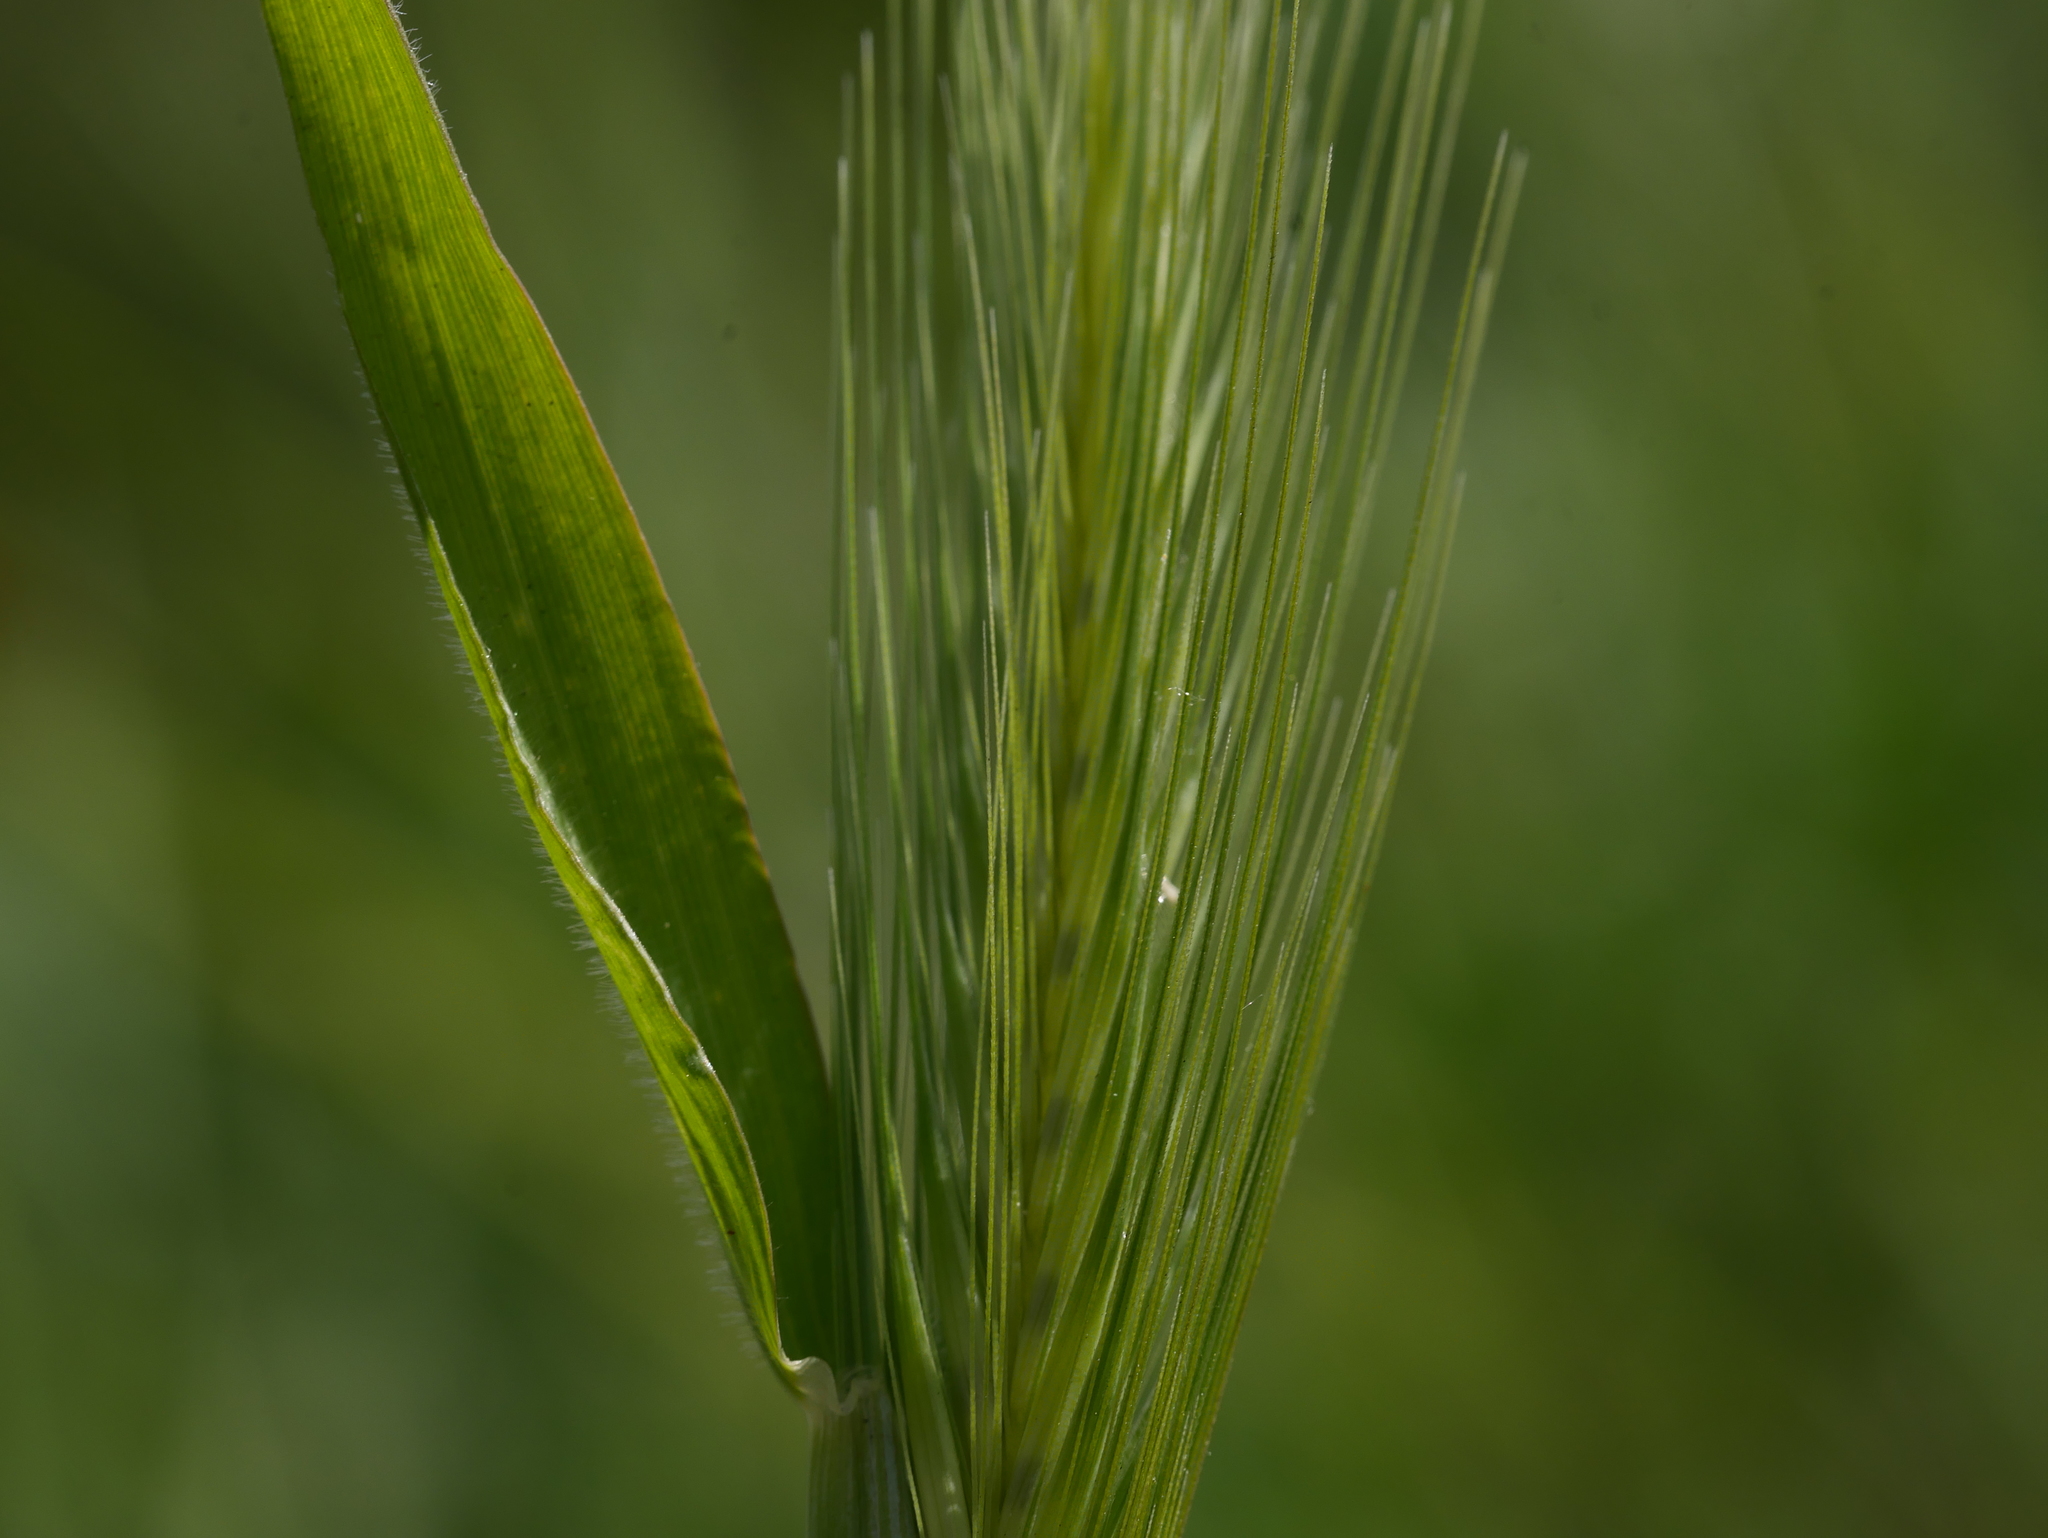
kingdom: Plantae
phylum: Tracheophyta
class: Liliopsida
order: Poales
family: Poaceae
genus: Hordeum
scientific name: Hordeum murinum
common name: Wall barley
